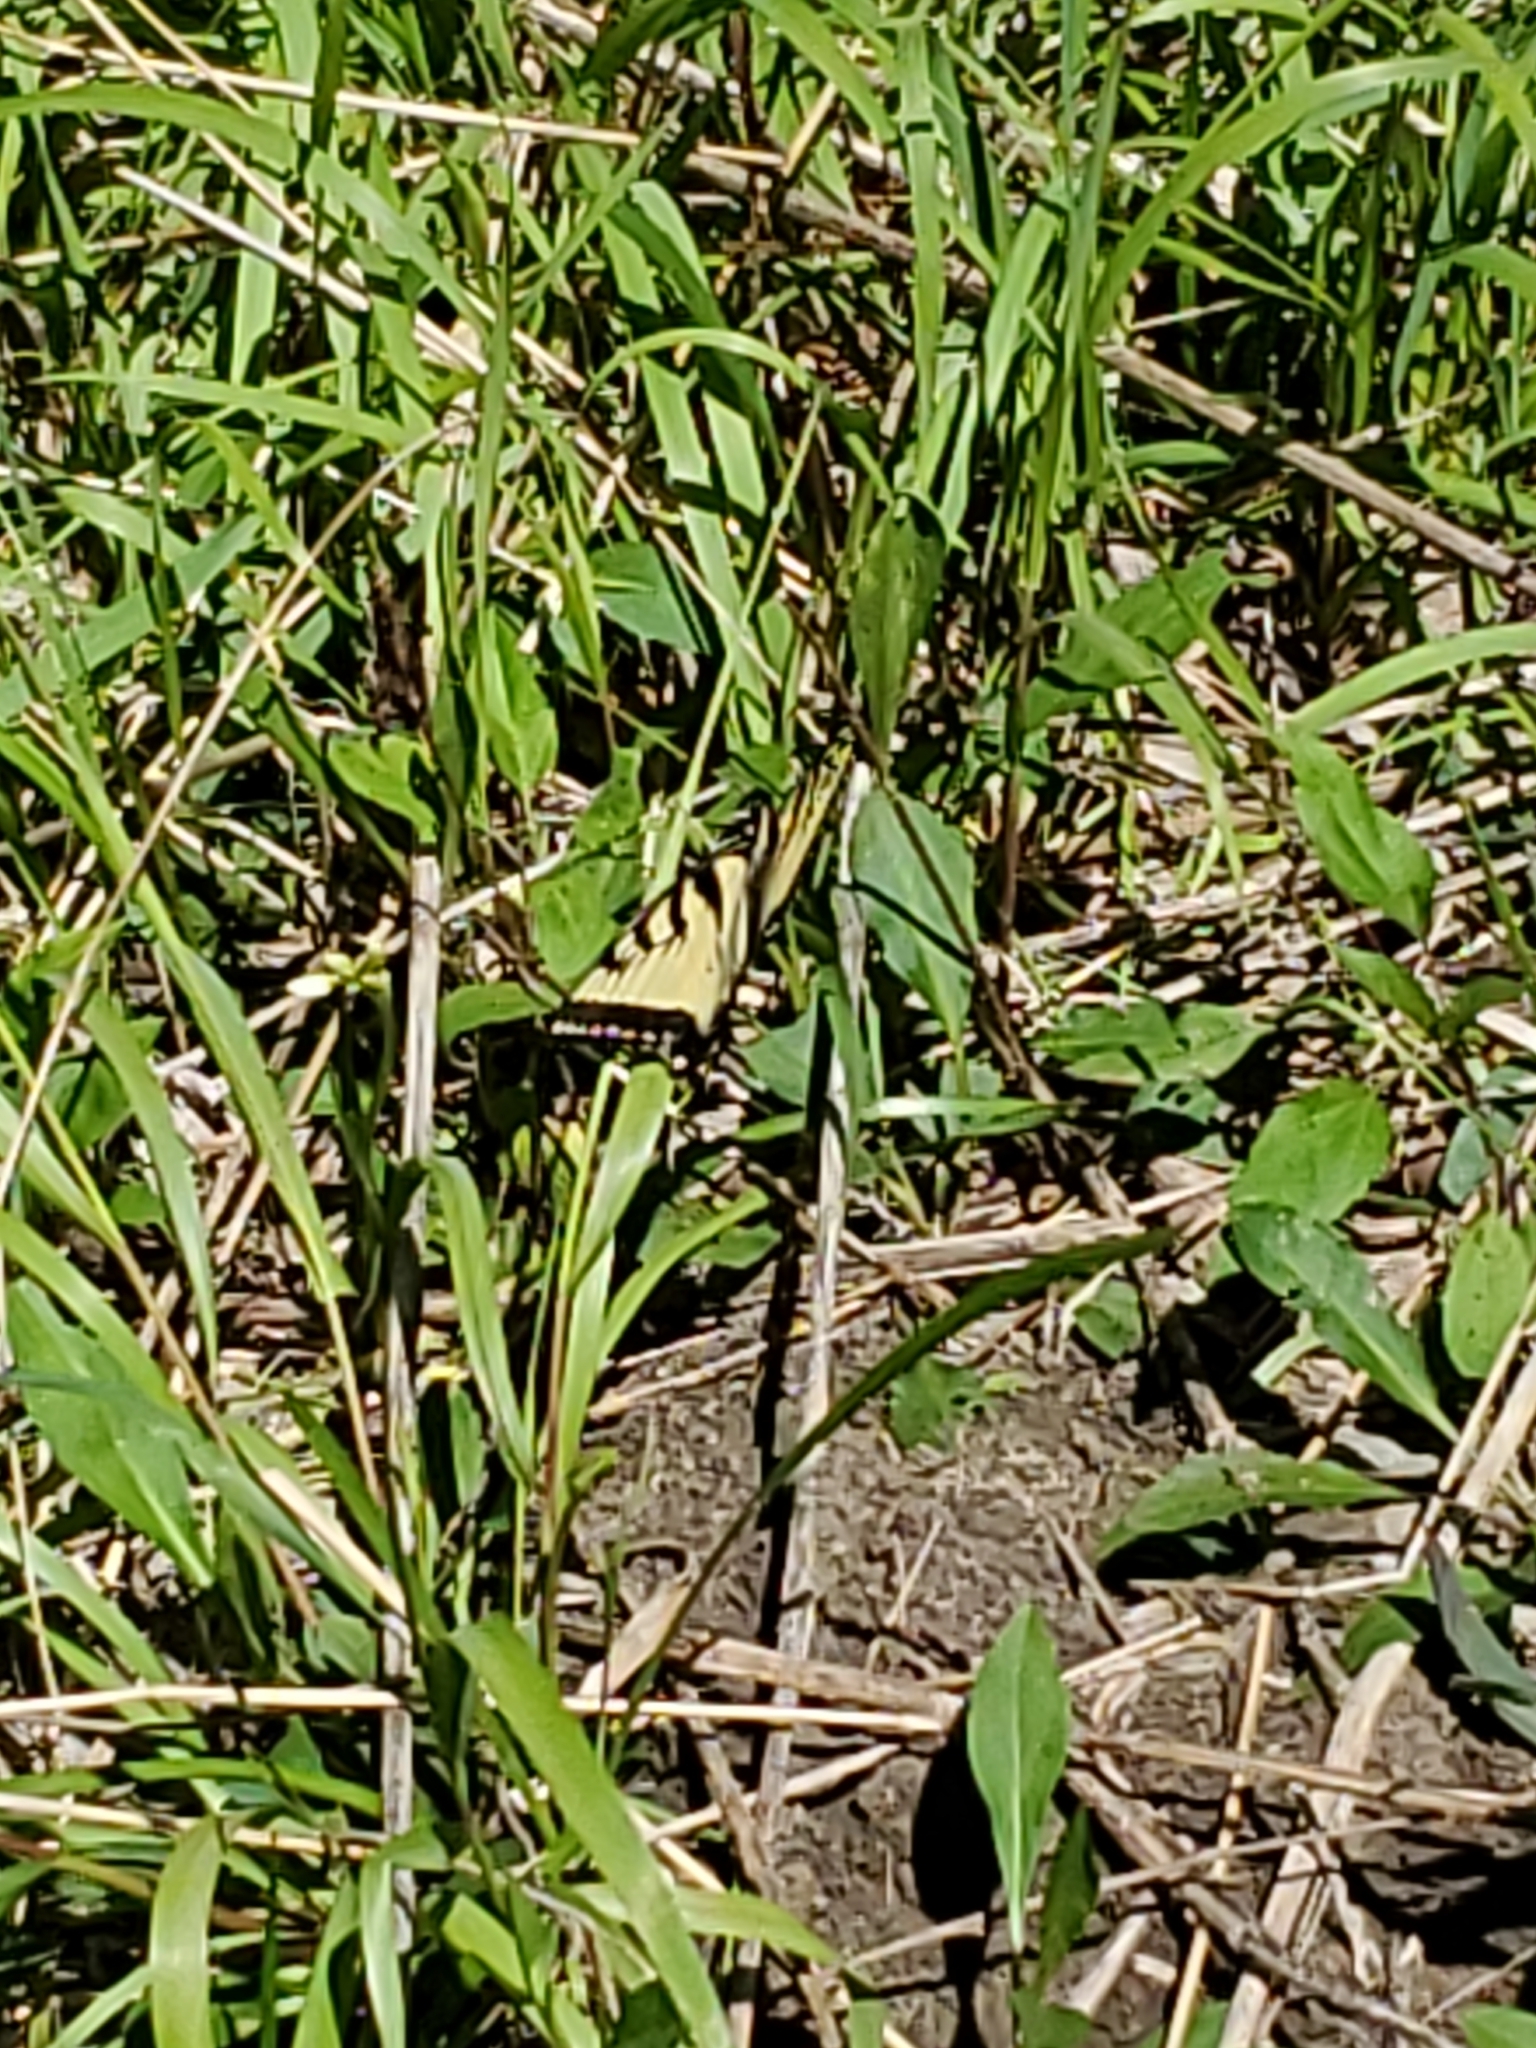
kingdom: Animalia
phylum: Arthropoda
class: Insecta
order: Lepidoptera
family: Papilionidae
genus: Papilio
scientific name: Papilio glaucus
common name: Tiger swallowtail
